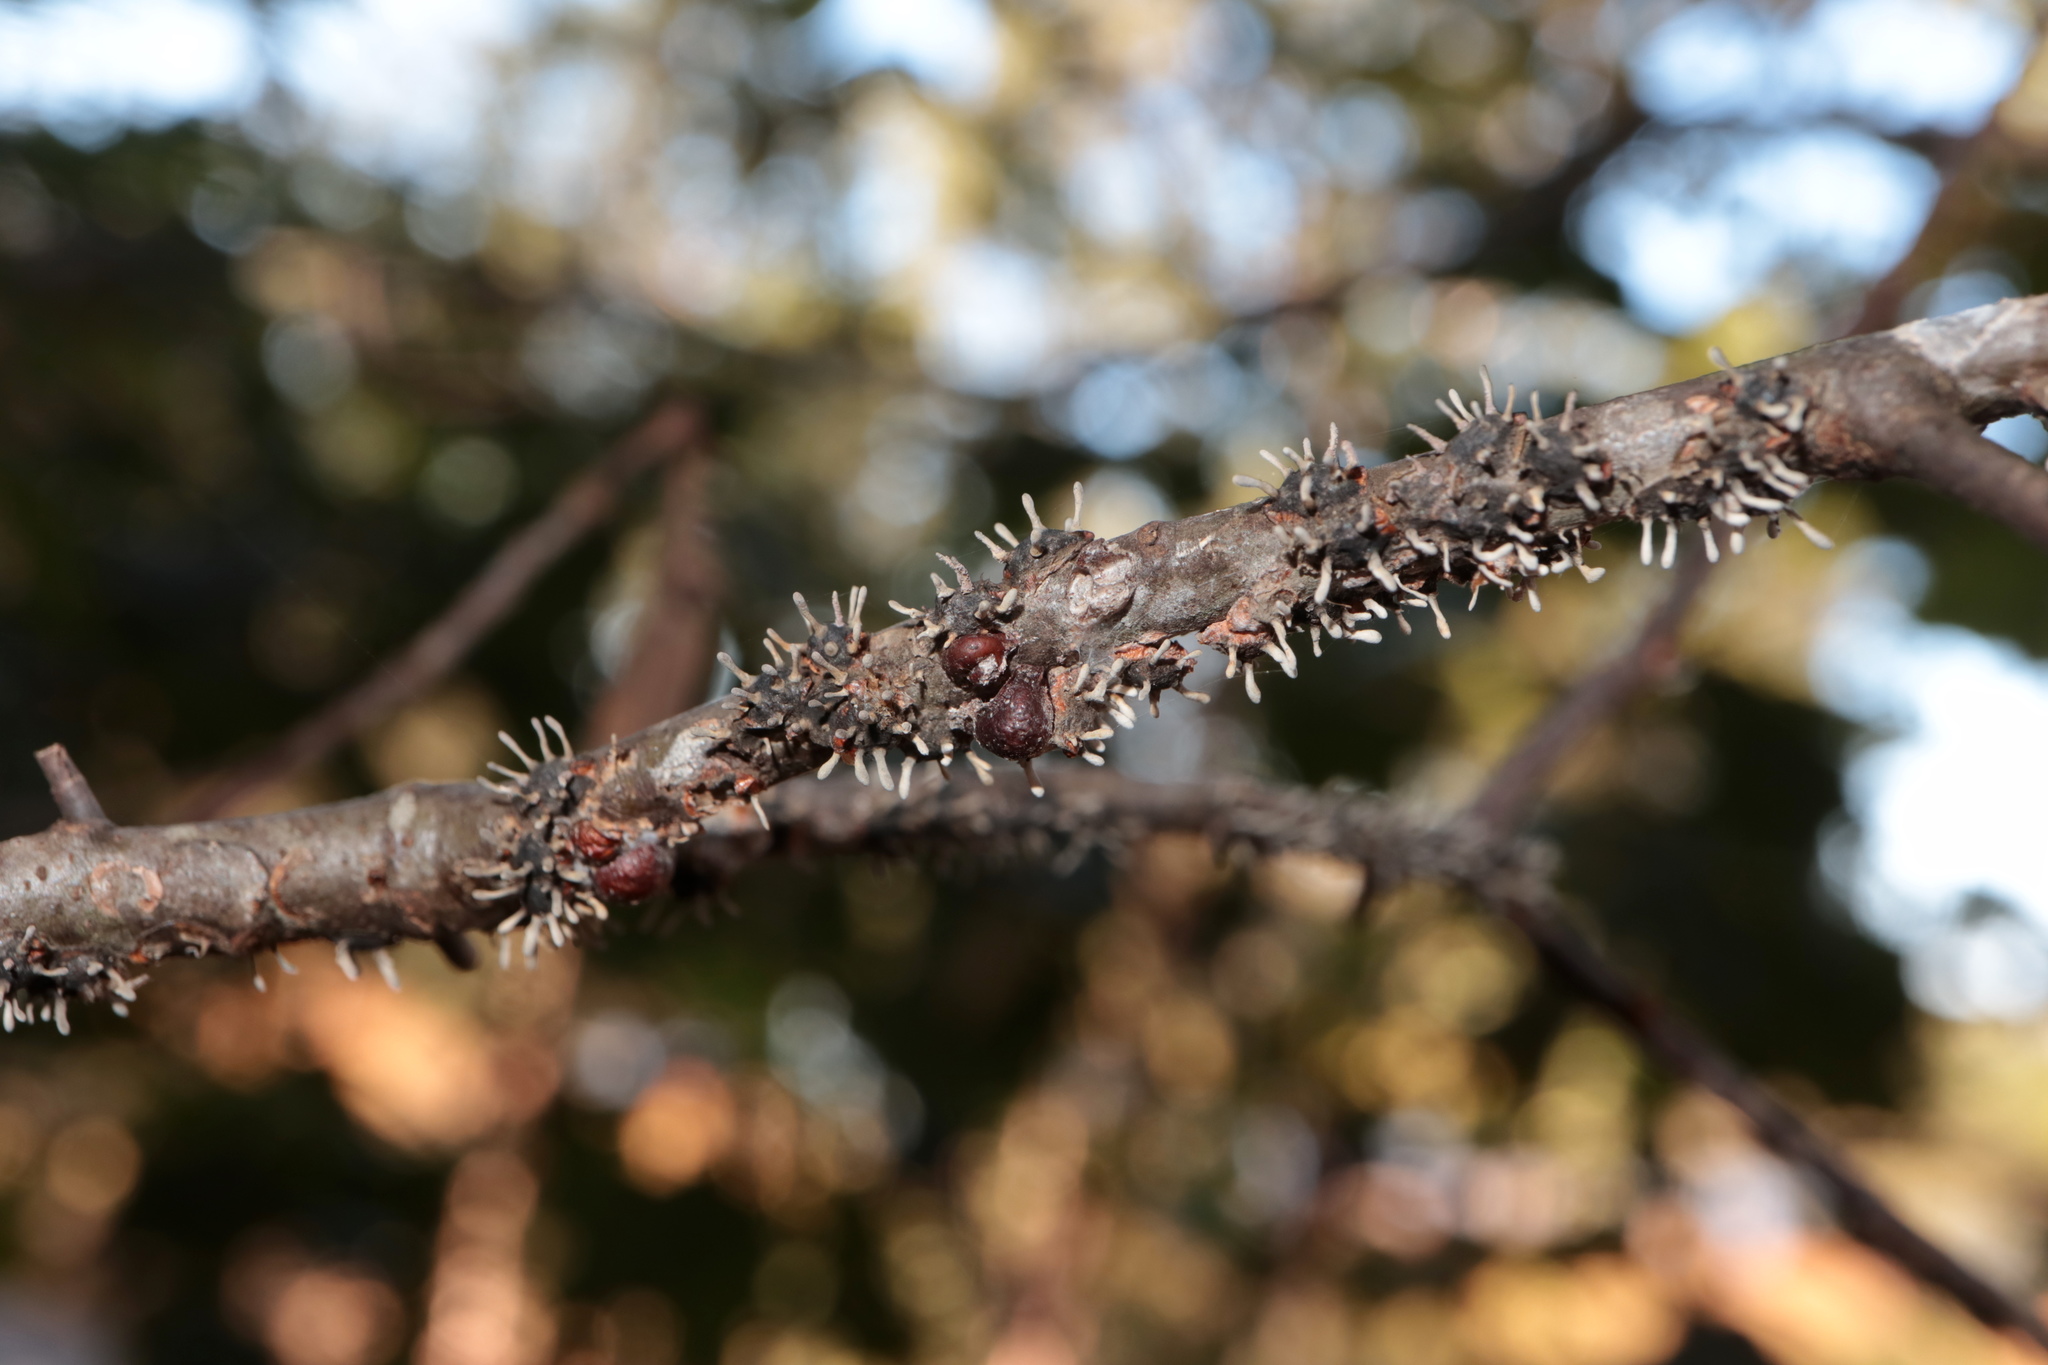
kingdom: Fungi
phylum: Ascomycota
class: Sordariomycetes
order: Hypocreales
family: Ophiocordycipitaceae
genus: Ophiocordyceps
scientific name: Ophiocordyceps clavulata
